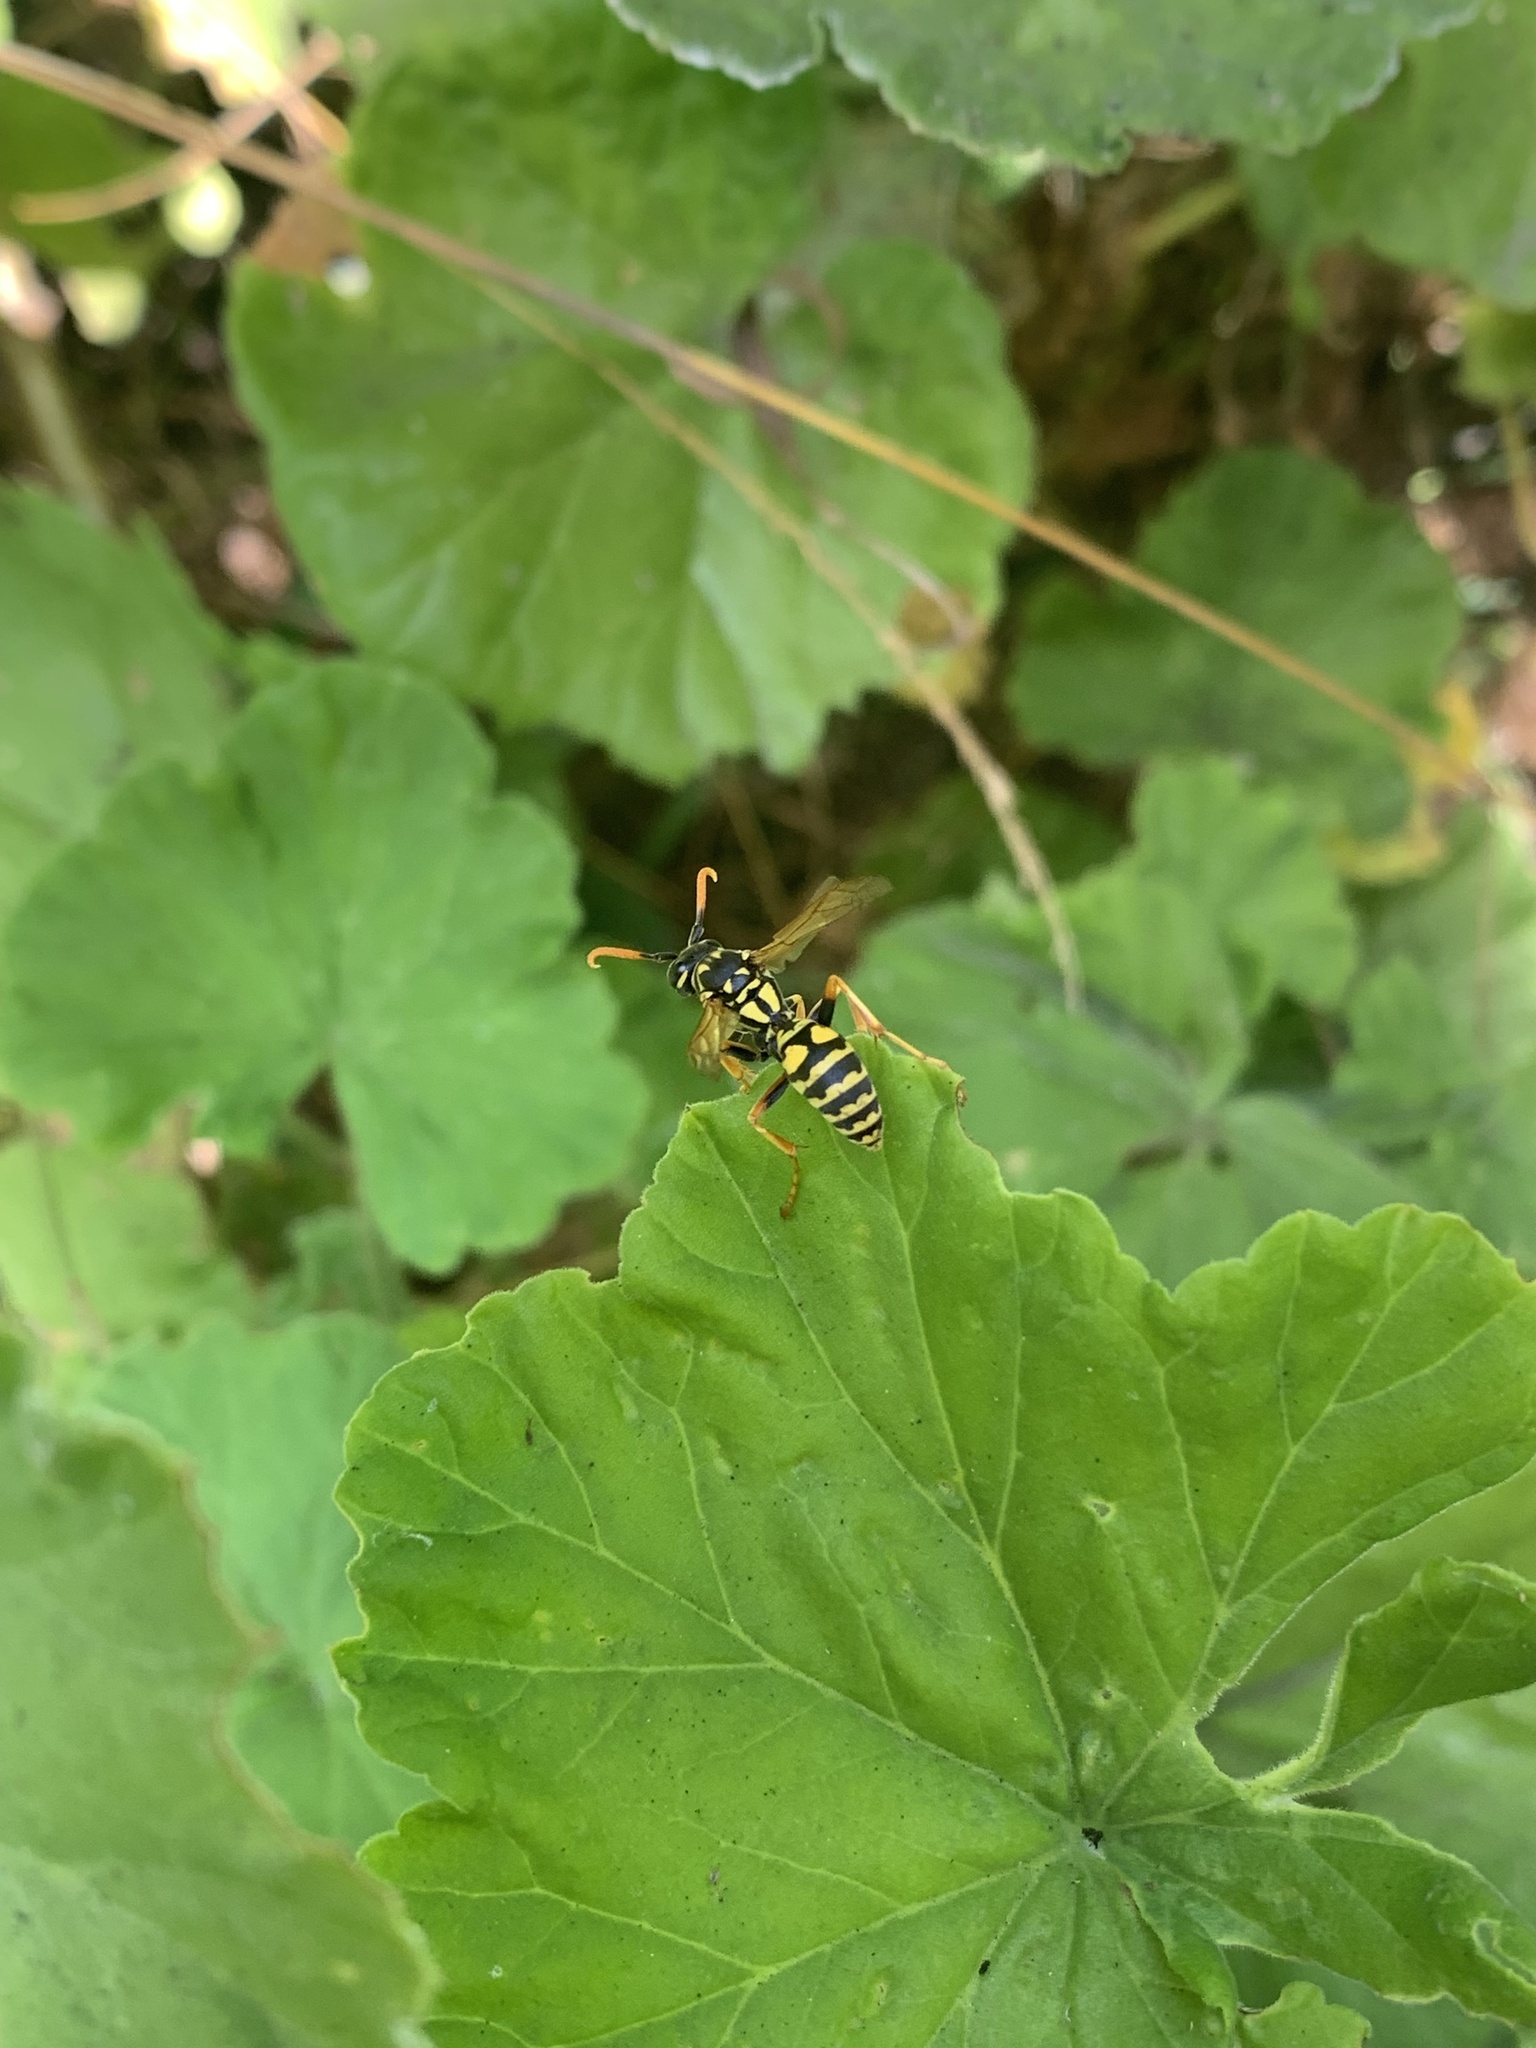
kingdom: Animalia
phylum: Arthropoda
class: Insecta
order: Hymenoptera
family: Eumenidae
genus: Polistes
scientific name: Polistes dominula
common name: Paper wasp
